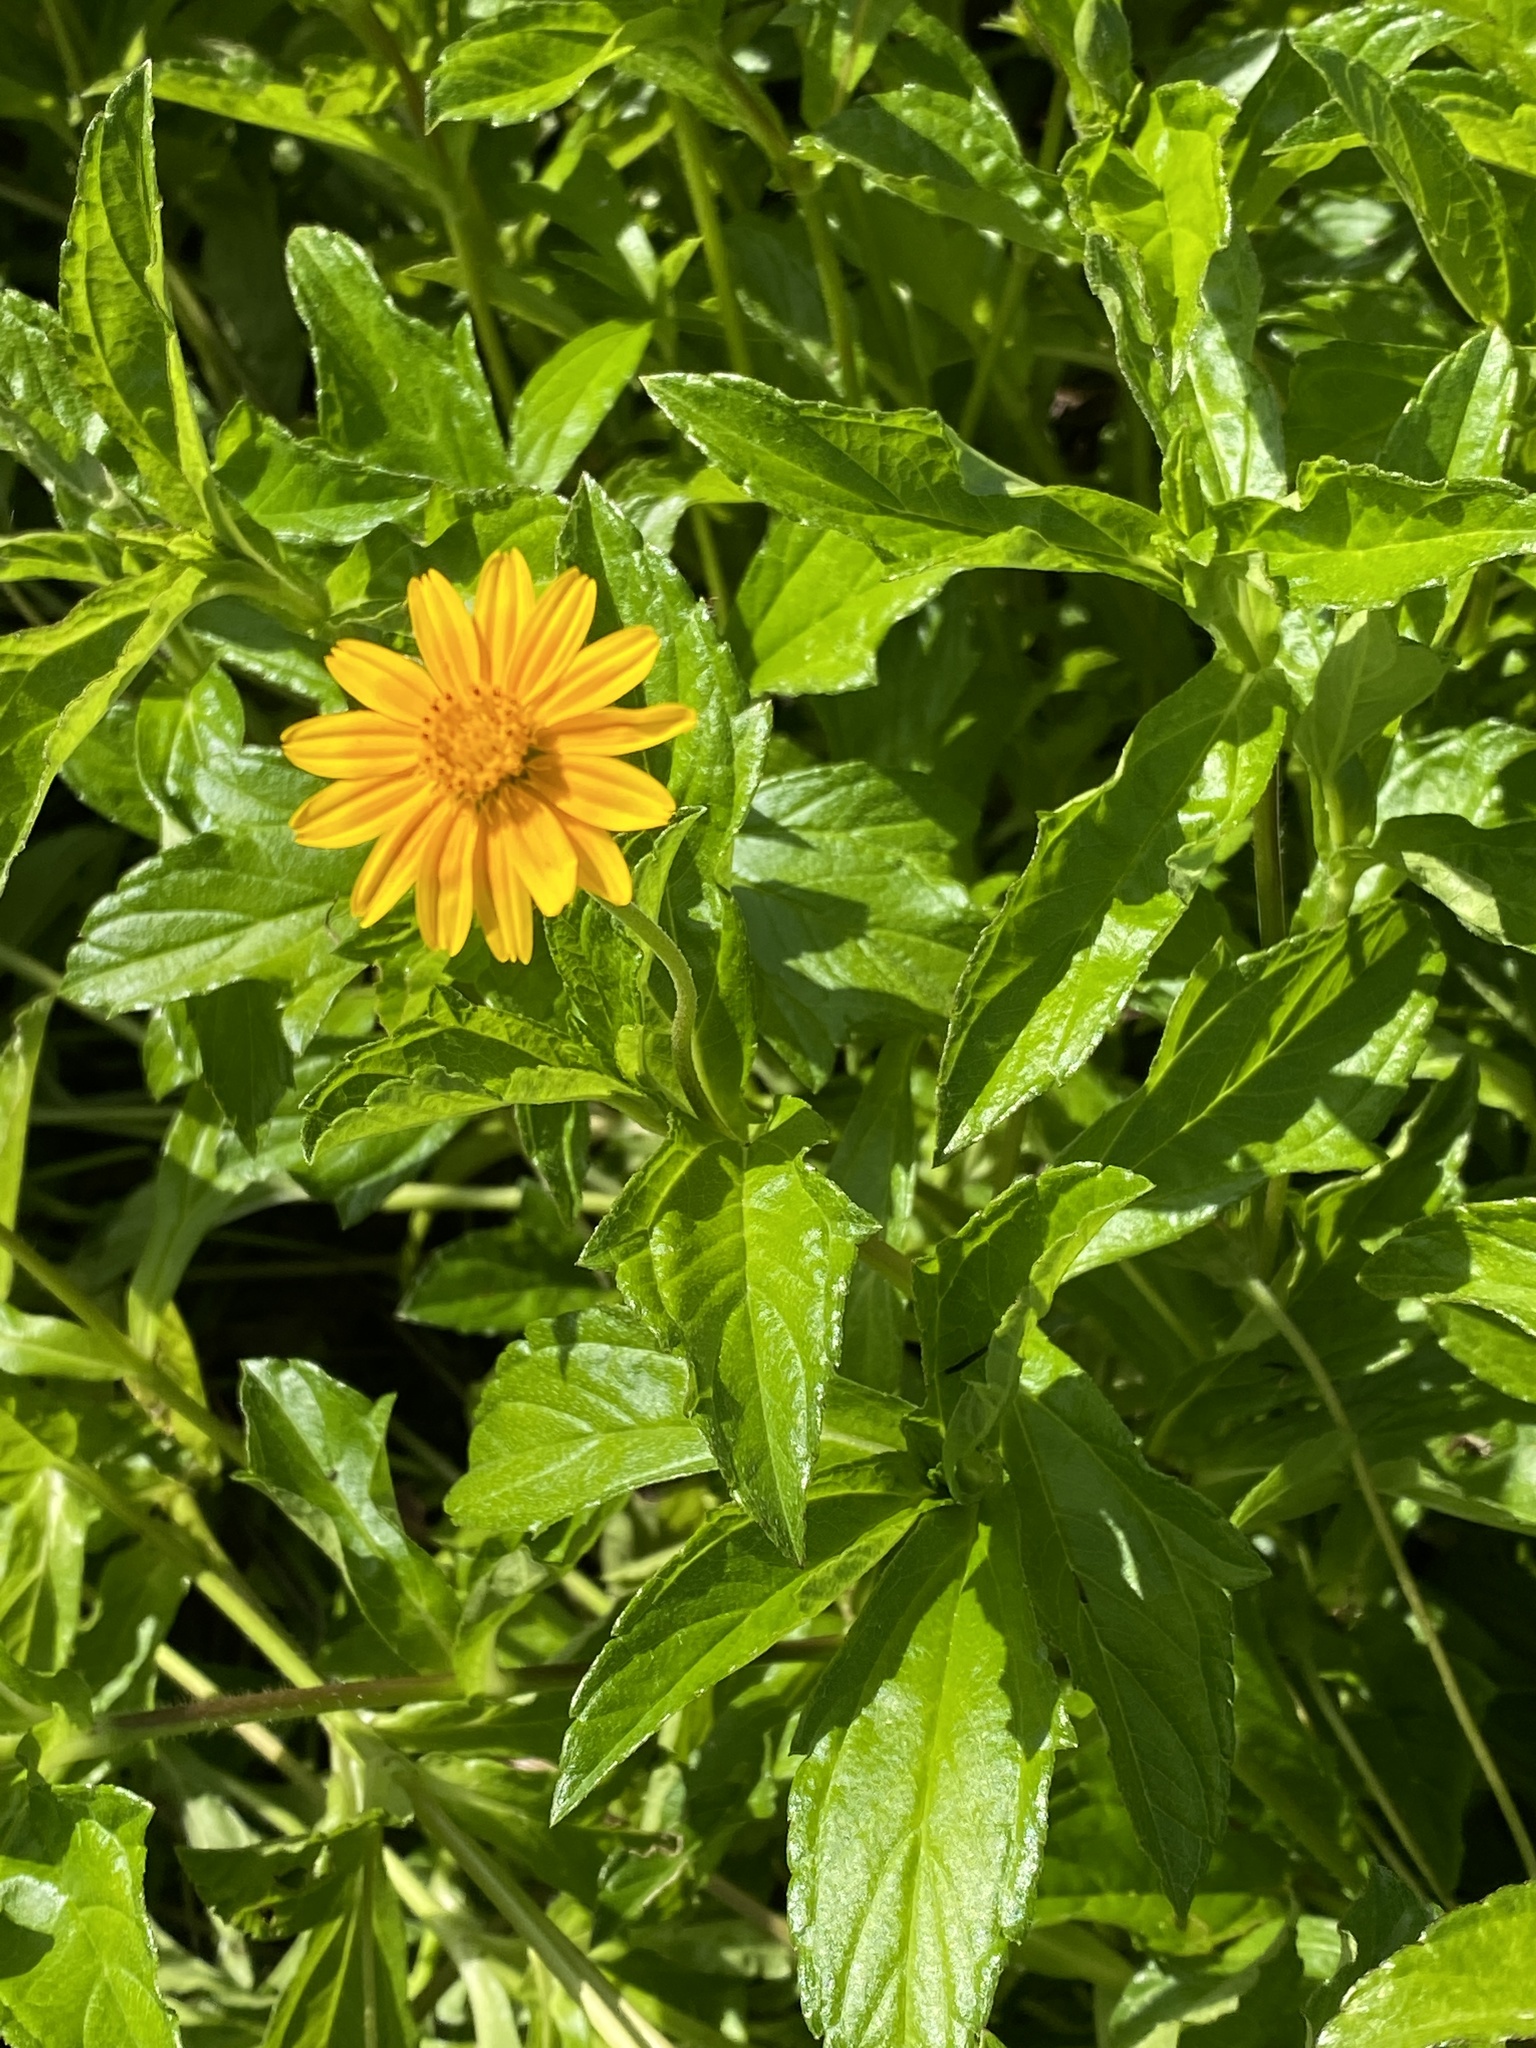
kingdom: Plantae
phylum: Tracheophyta
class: Magnoliopsida
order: Asterales
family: Asteraceae
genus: Sphagneticola
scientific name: Sphagneticola trilobata
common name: Bay biscayne creeping-oxeye
